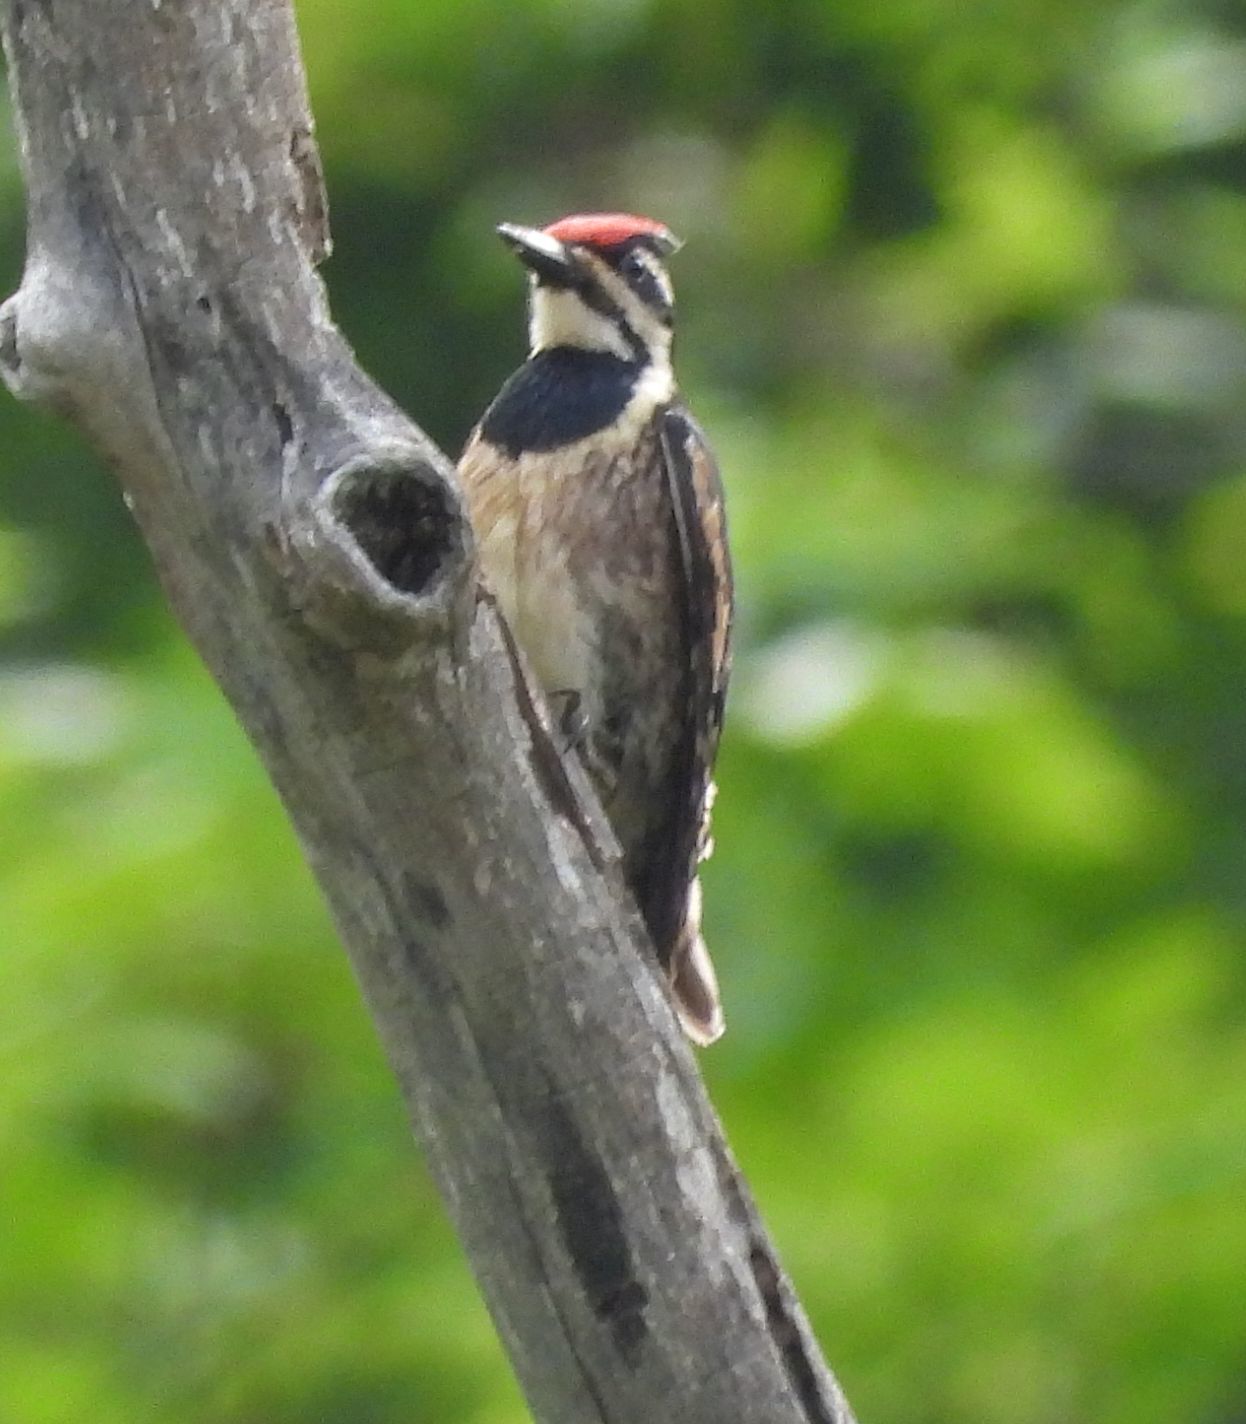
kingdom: Animalia
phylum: Chordata
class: Aves
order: Piciformes
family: Picidae
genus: Sphyrapicus
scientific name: Sphyrapicus varius
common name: Yellow-bellied sapsucker
